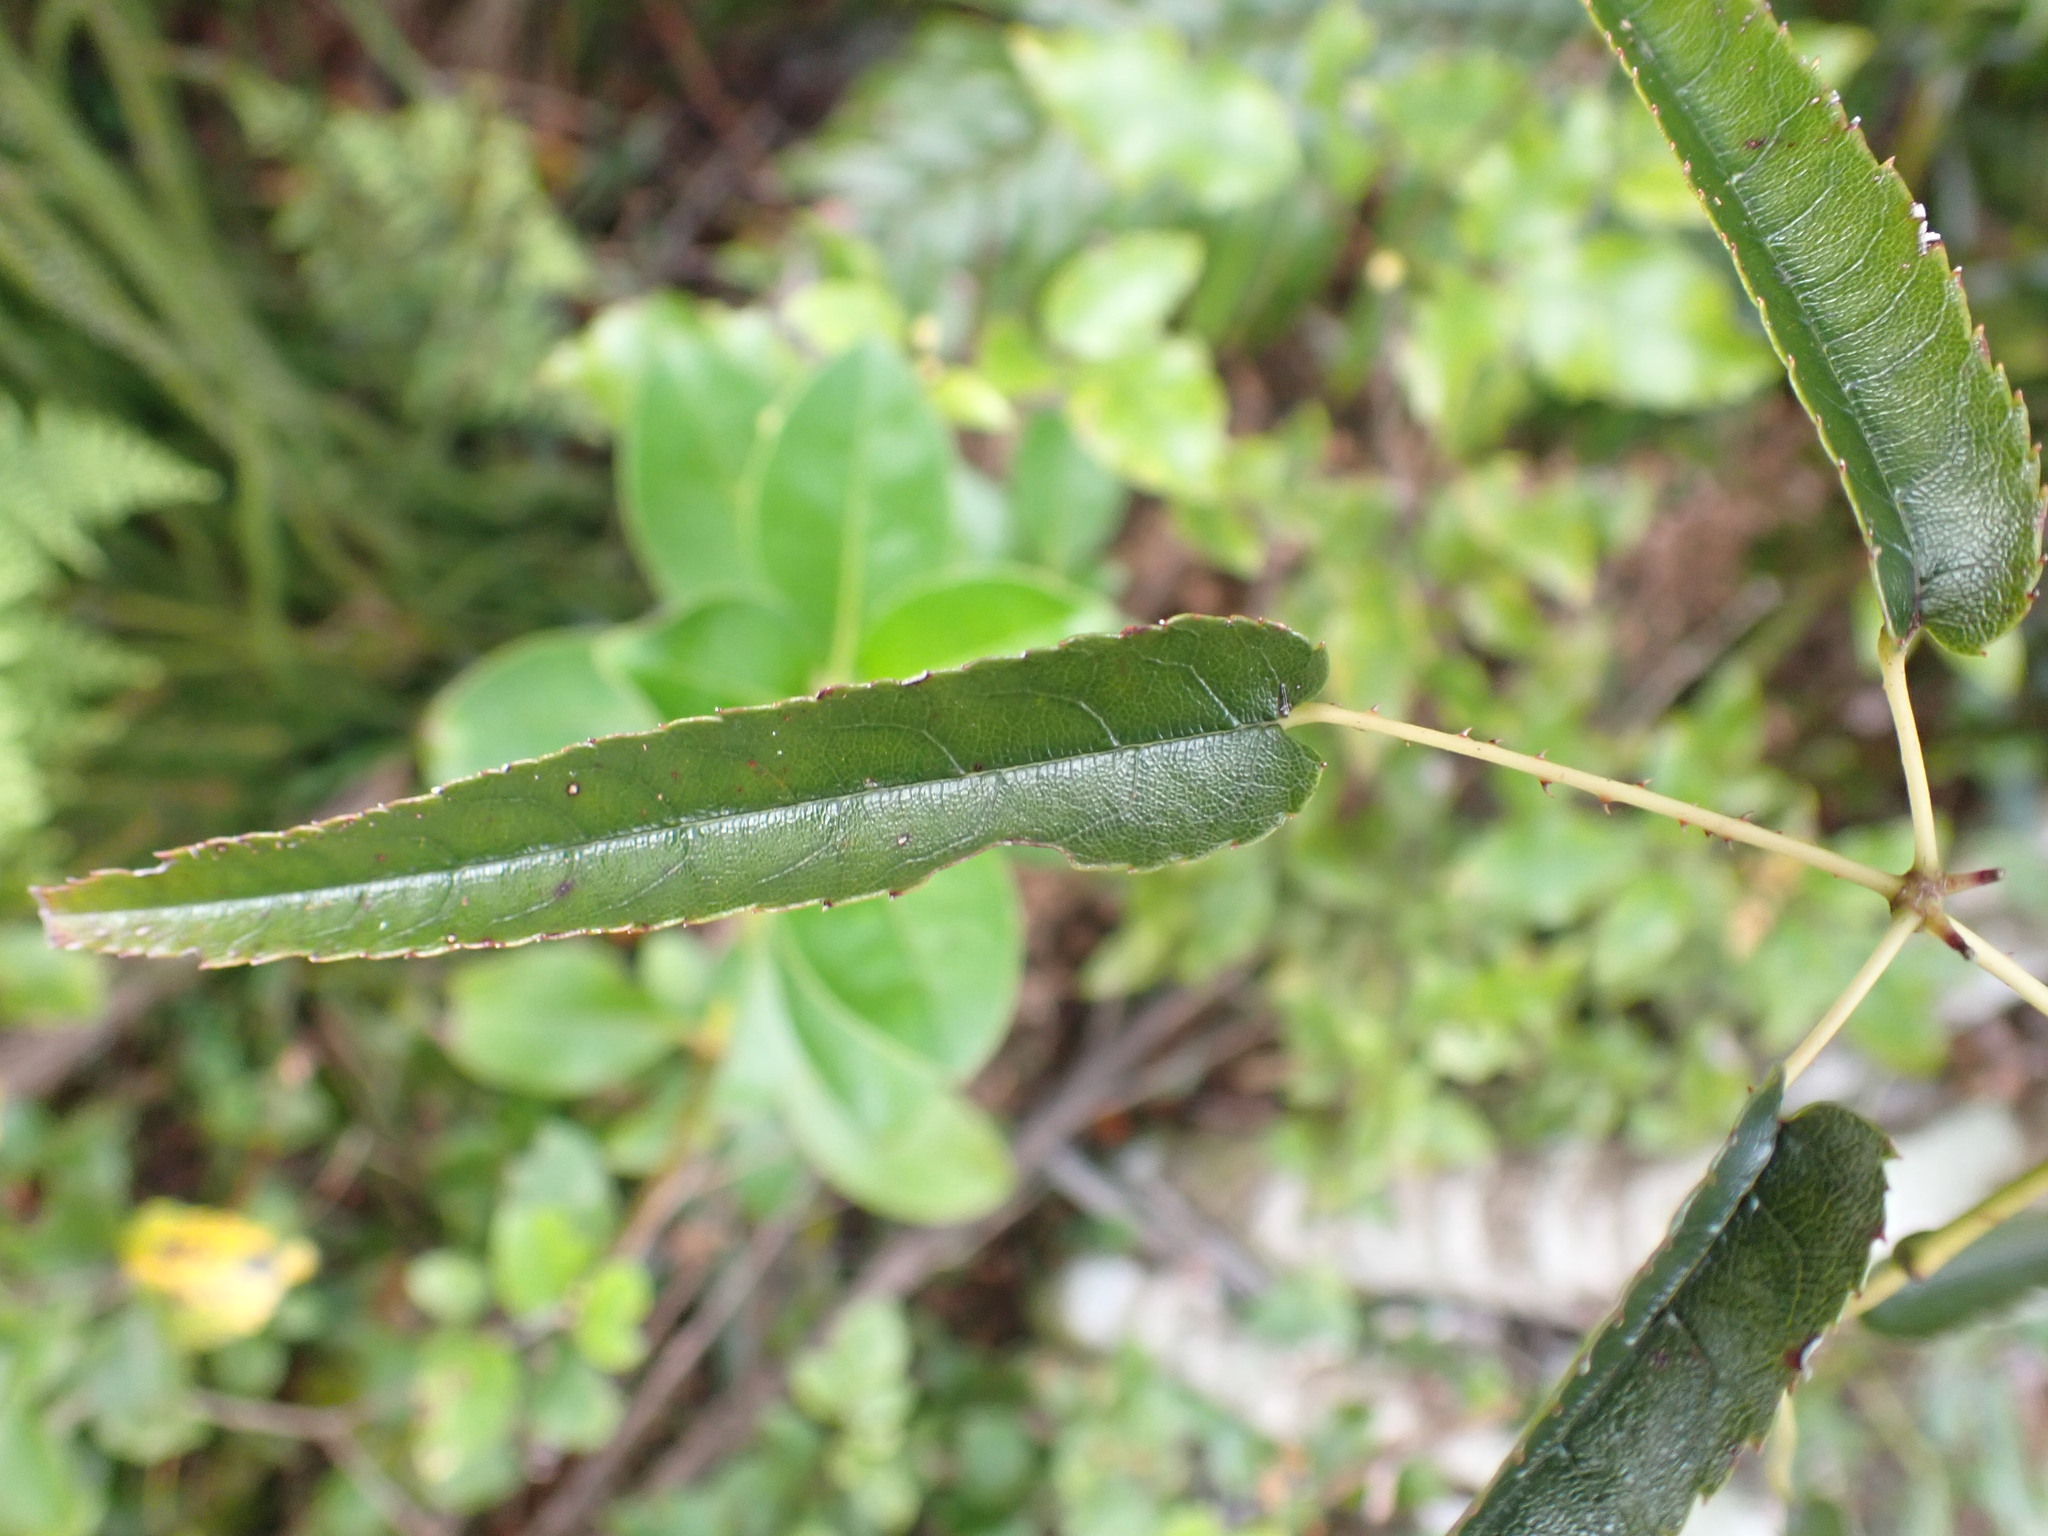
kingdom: Plantae
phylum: Tracheophyta
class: Magnoliopsida
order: Rosales
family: Rosaceae
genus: Rubus
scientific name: Rubus cissoides
